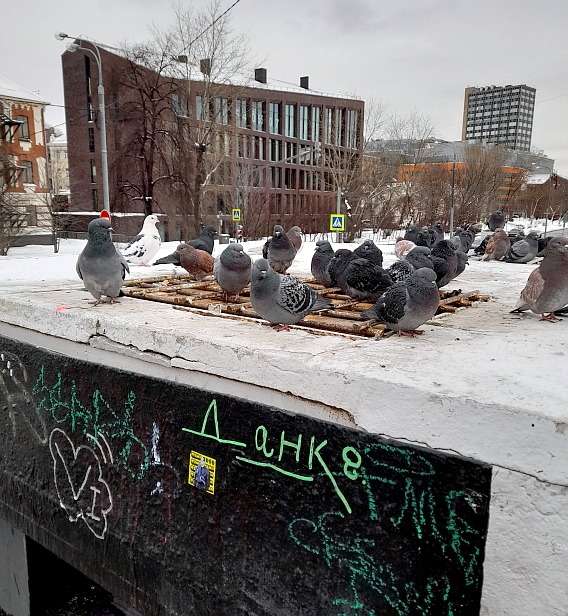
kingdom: Animalia
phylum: Chordata
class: Aves
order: Columbiformes
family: Columbidae
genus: Columba
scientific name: Columba livia
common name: Rock pigeon
